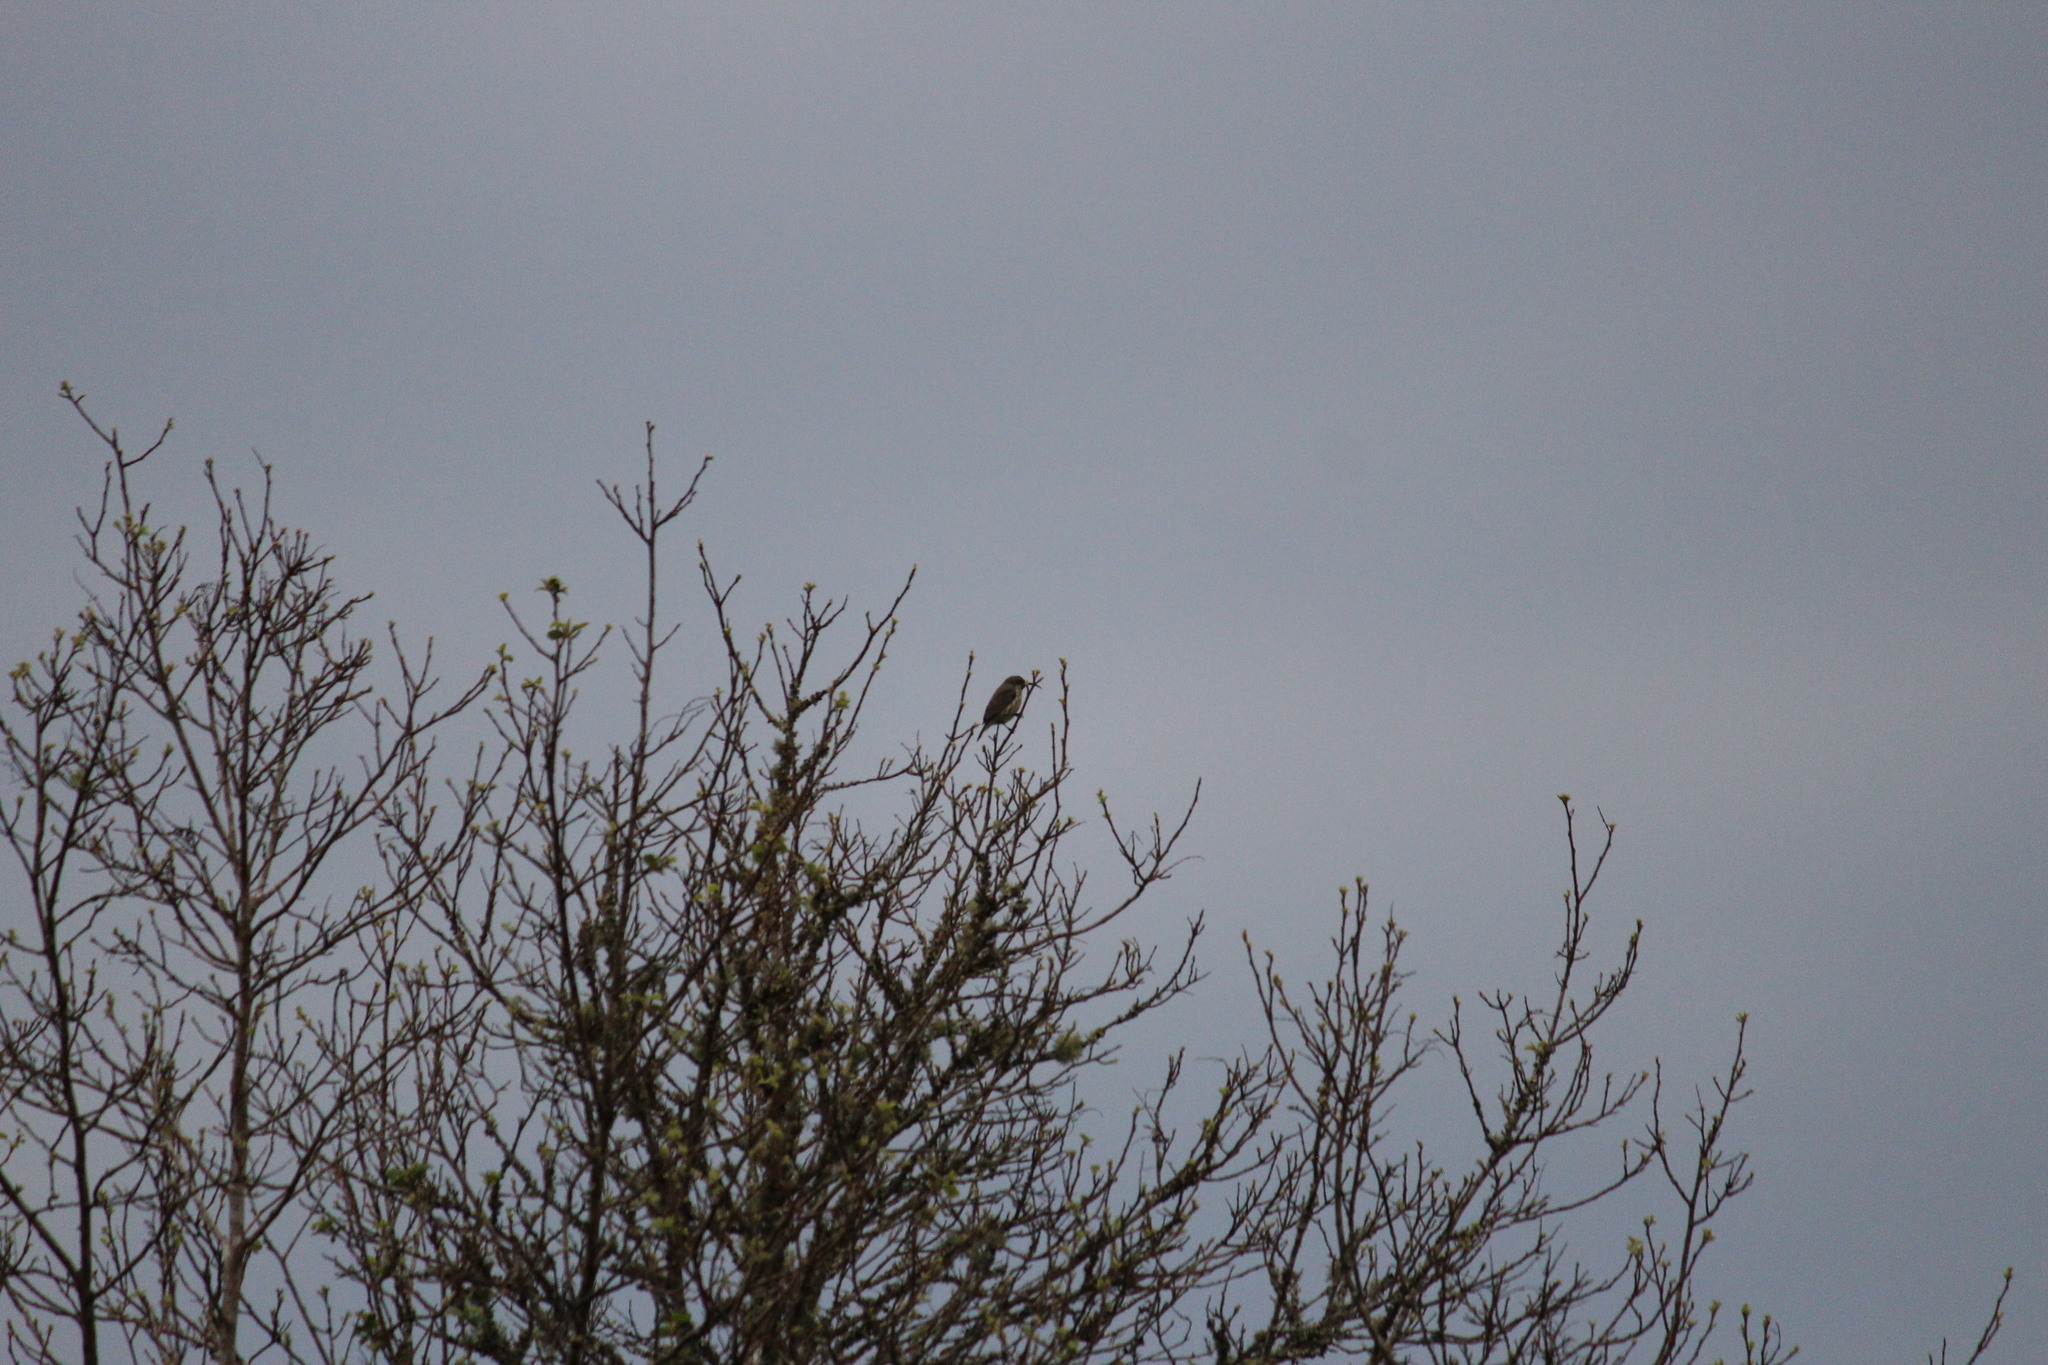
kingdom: Animalia
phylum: Chordata
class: Aves
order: Passeriformes
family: Nectariniidae
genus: Chalcomitra
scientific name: Chalcomitra amethystina
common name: Amethyst sunbird
